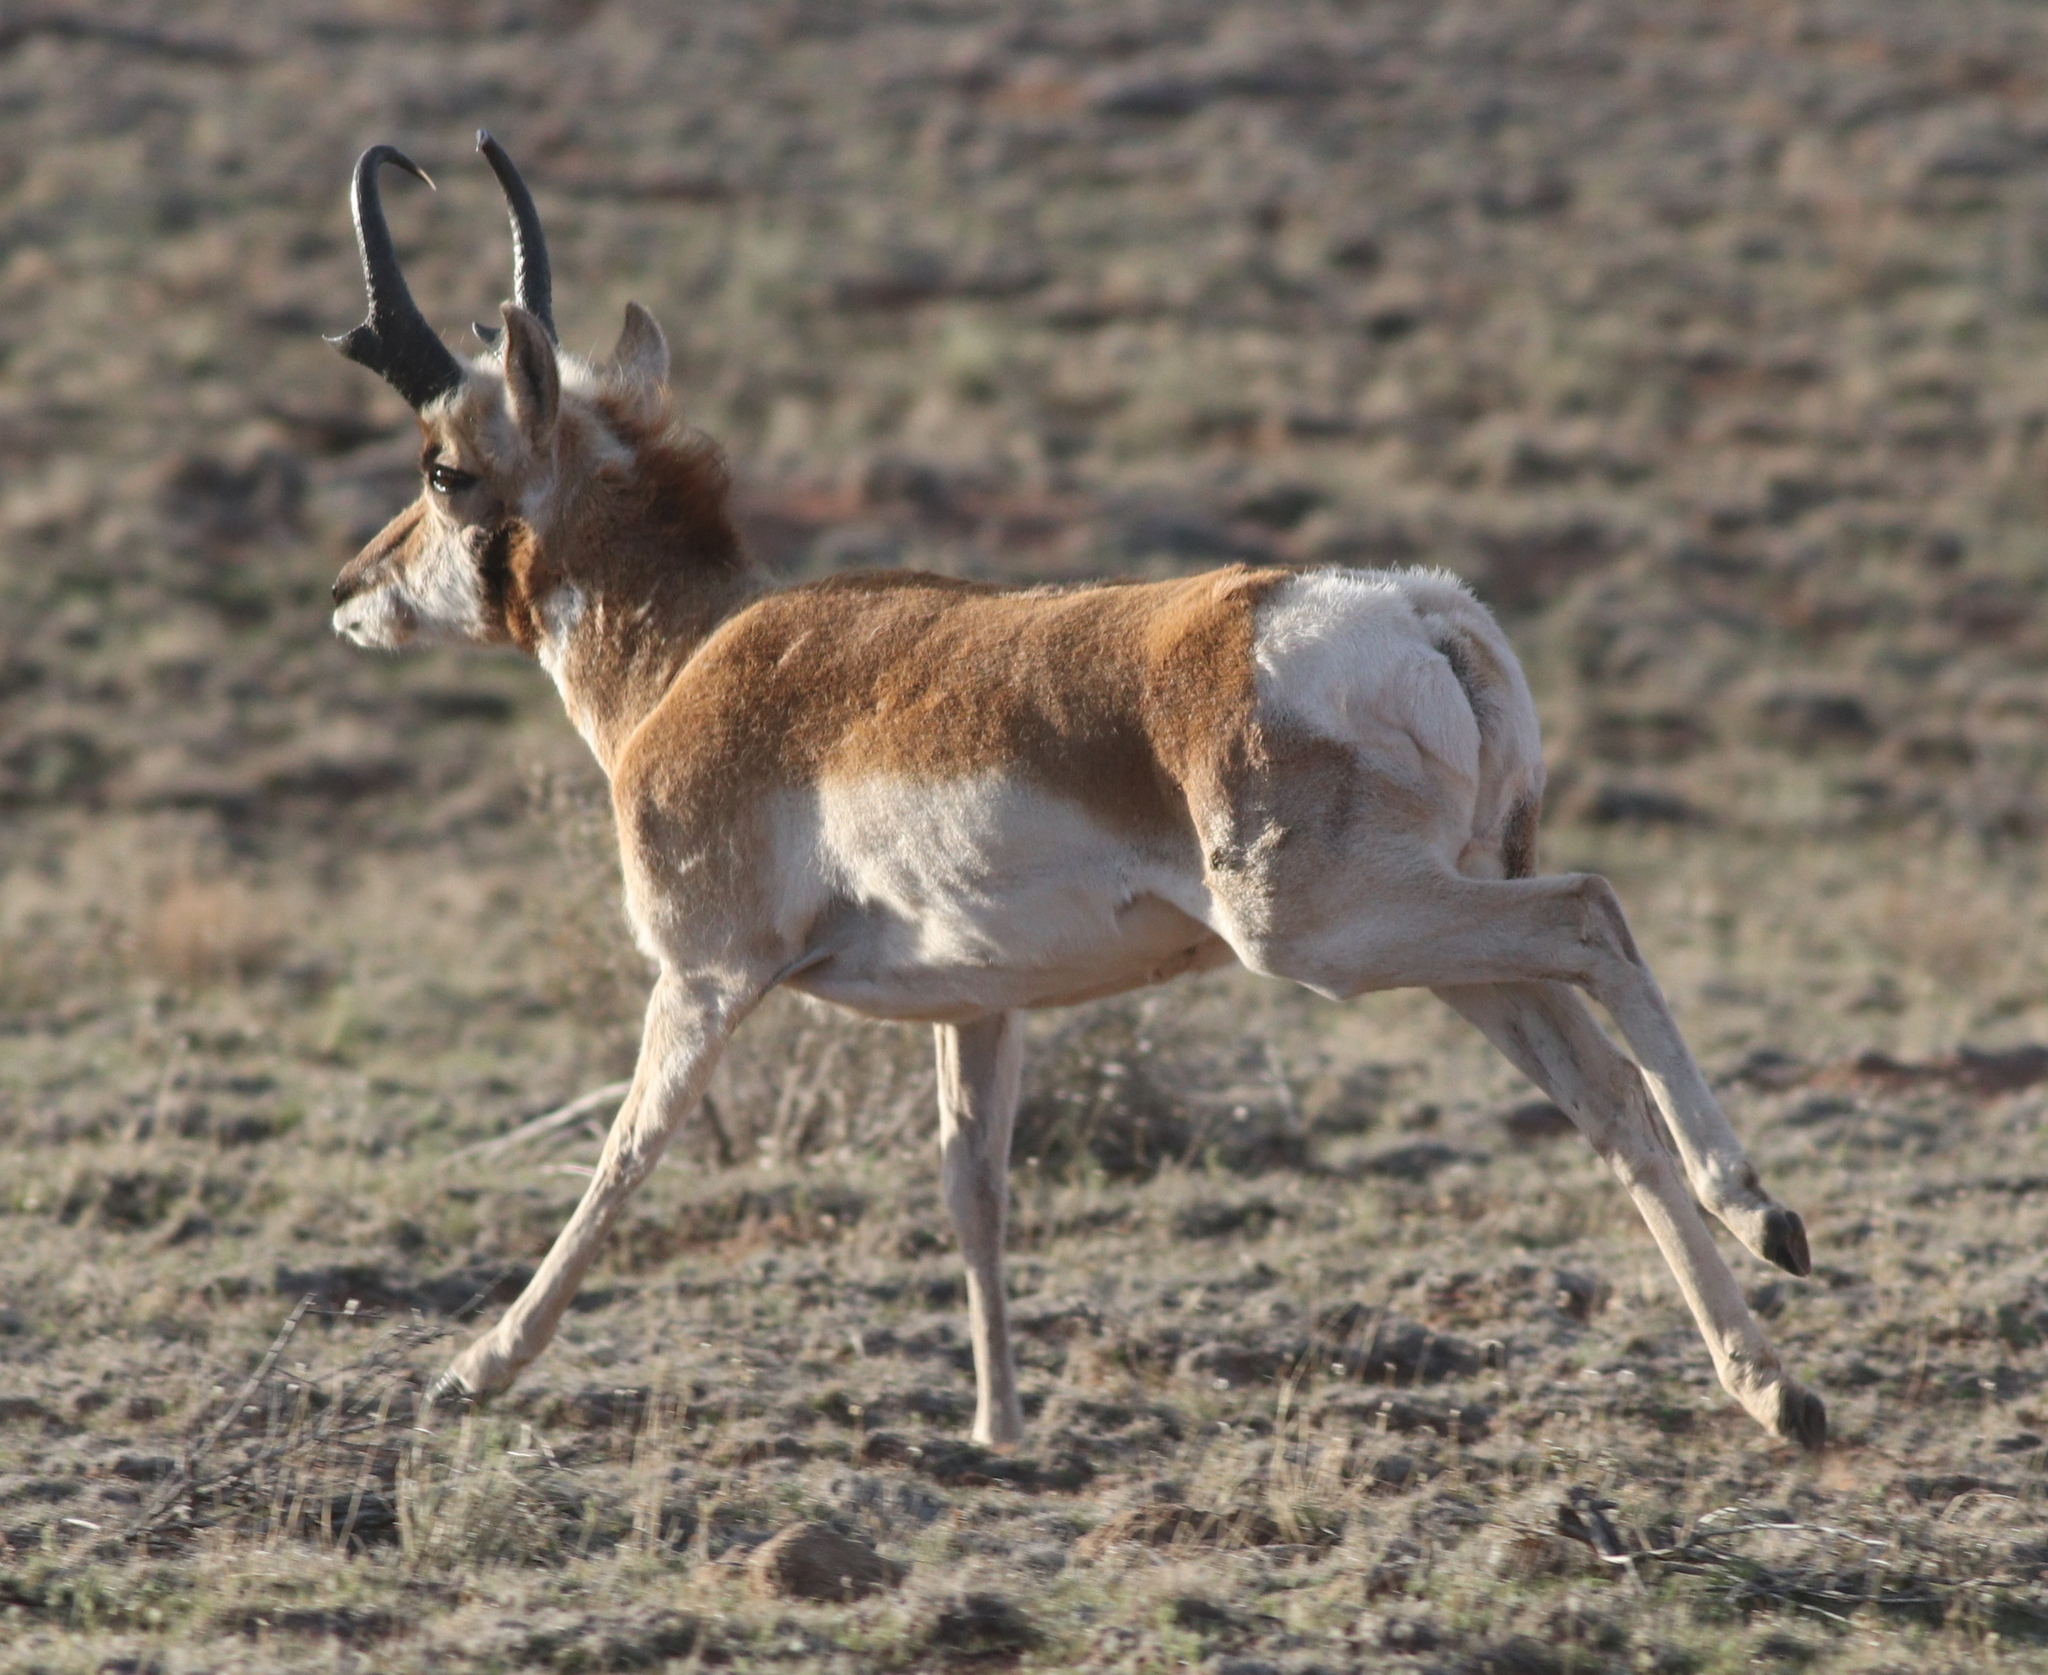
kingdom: Animalia
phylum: Chordata
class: Mammalia
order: Artiodactyla
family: Antilocapridae
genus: Antilocapra
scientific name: Antilocapra americana
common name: Pronghorn
